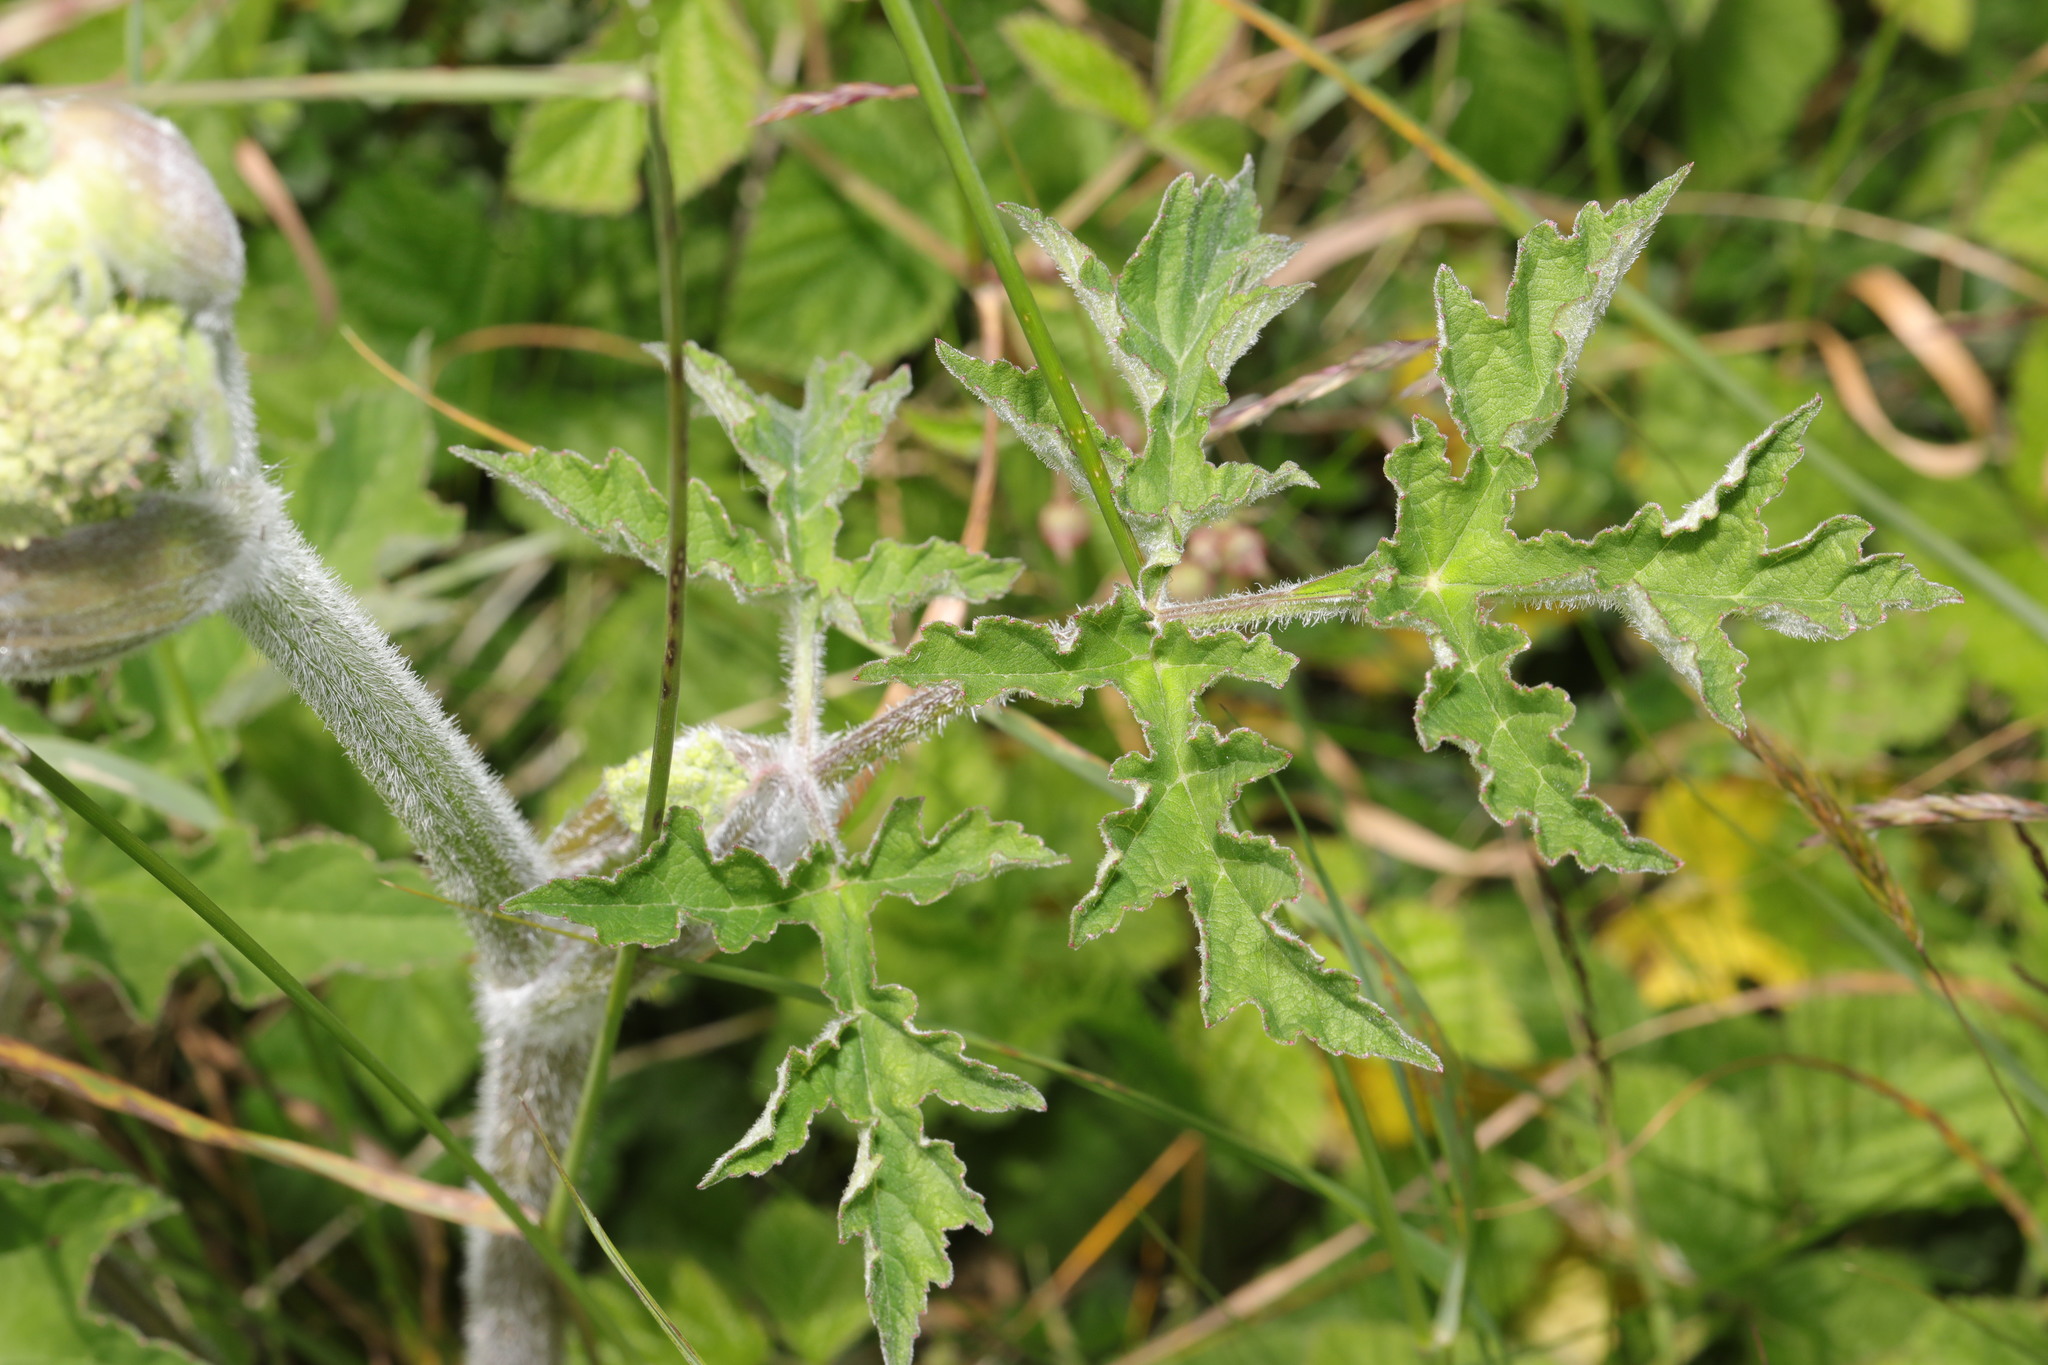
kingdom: Plantae
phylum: Tracheophyta
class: Magnoliopsida
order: Apiales
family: Apiaceae
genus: Heracleum
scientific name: Heracleum sphondylium
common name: Hogweed
